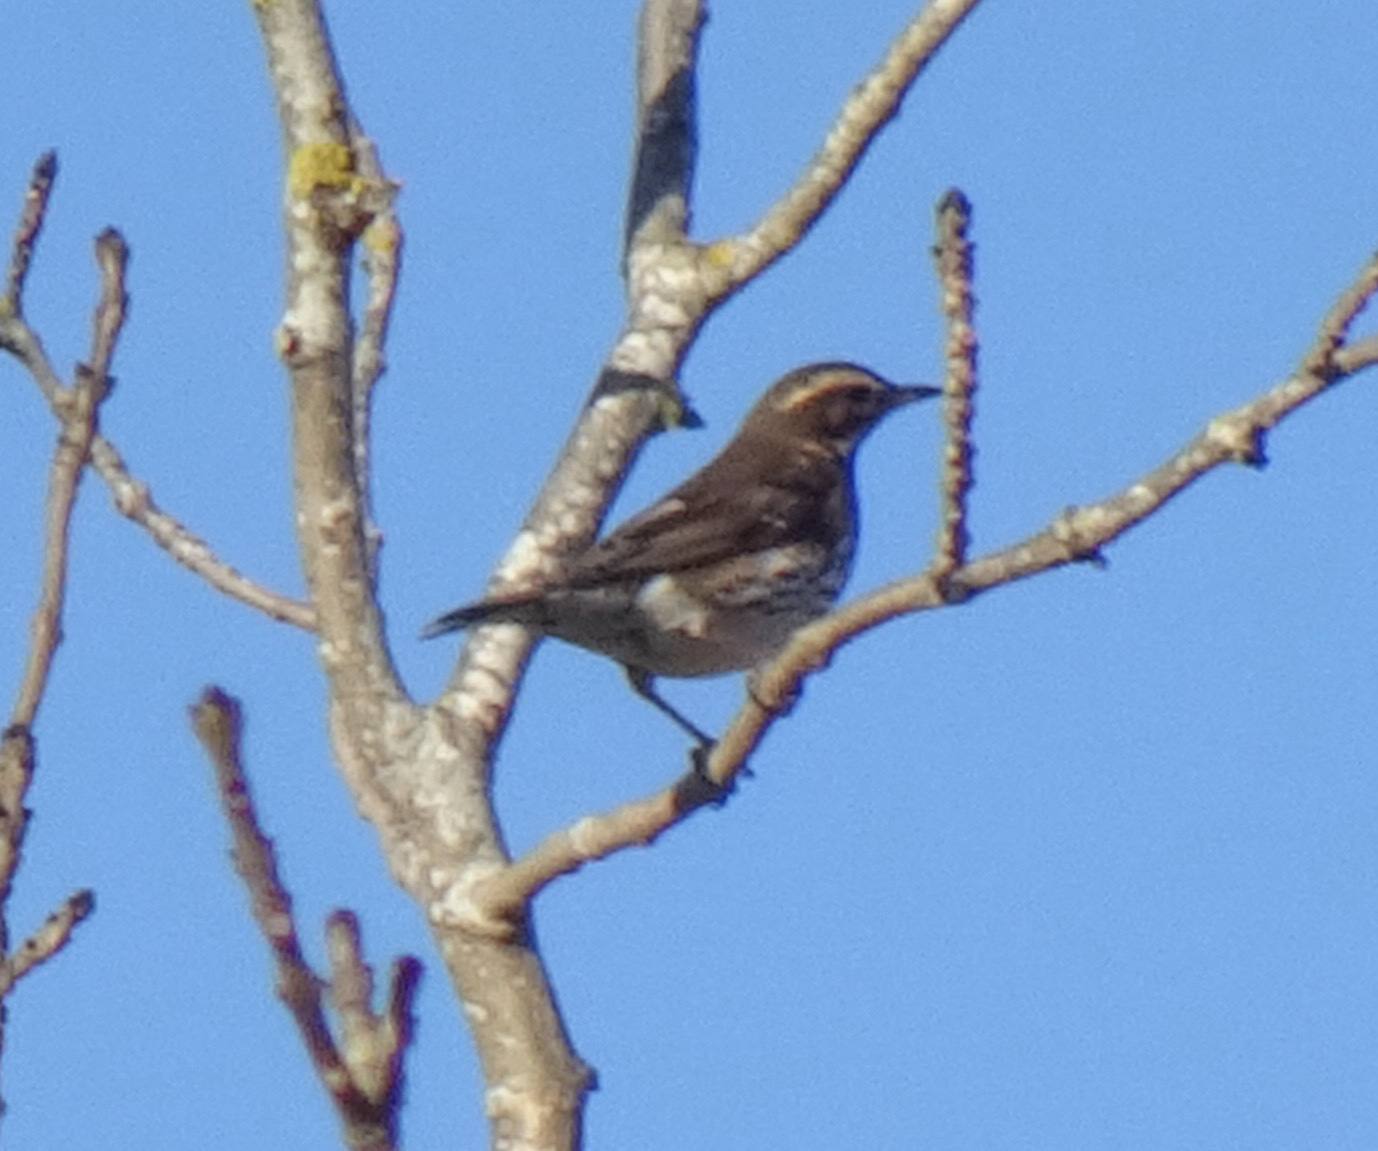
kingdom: Animalia
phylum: Chordata
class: Aves
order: Passeriformes
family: Turdidae
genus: Turdus
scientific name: Turdus iliacus
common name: Redwing
